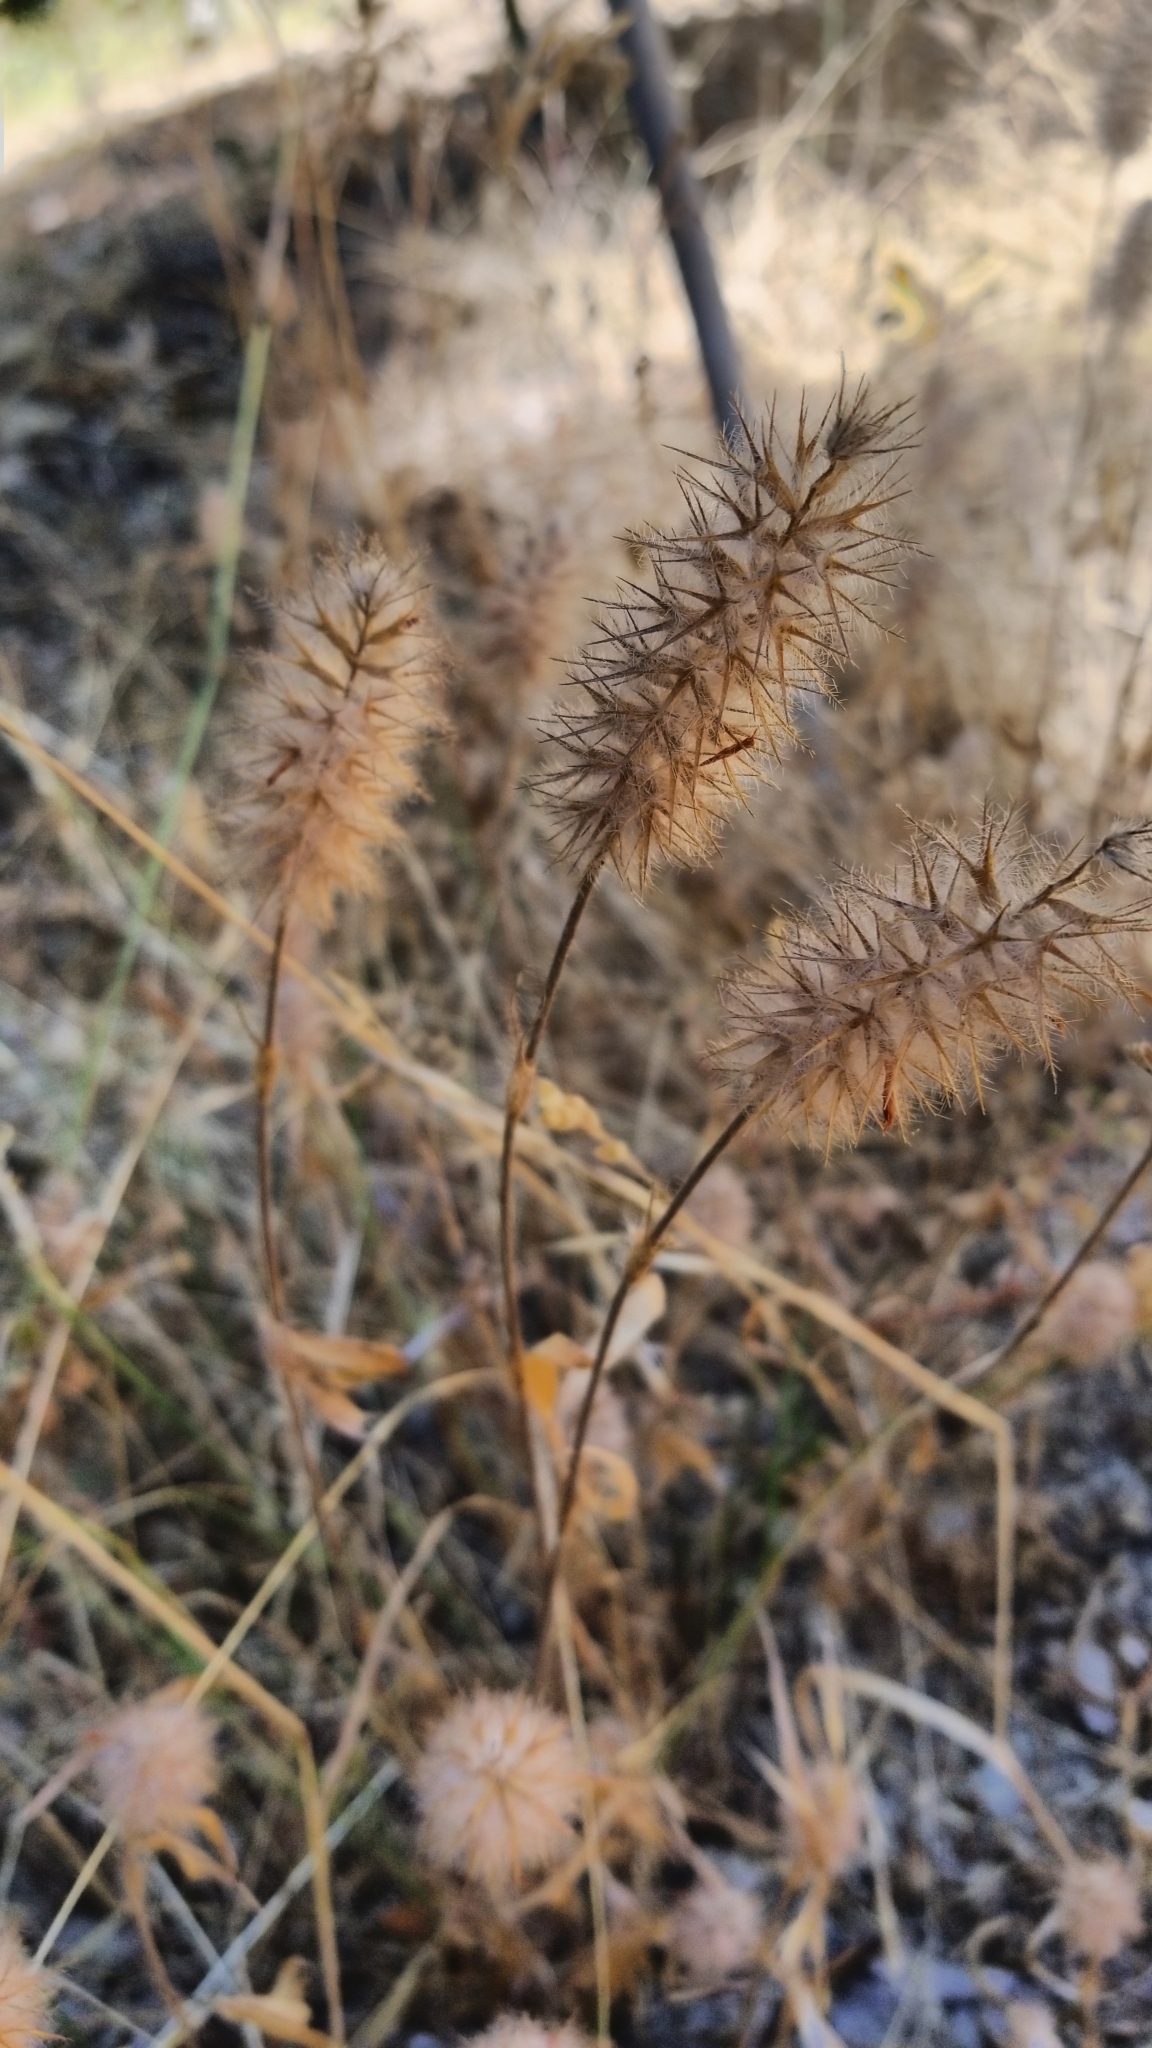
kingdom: Plantae
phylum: Tracheophyta
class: Magnoliopsida
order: Fabales
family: Fabaceae
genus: Trifolium
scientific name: Trifolium angustifolium
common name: Narrow clover
